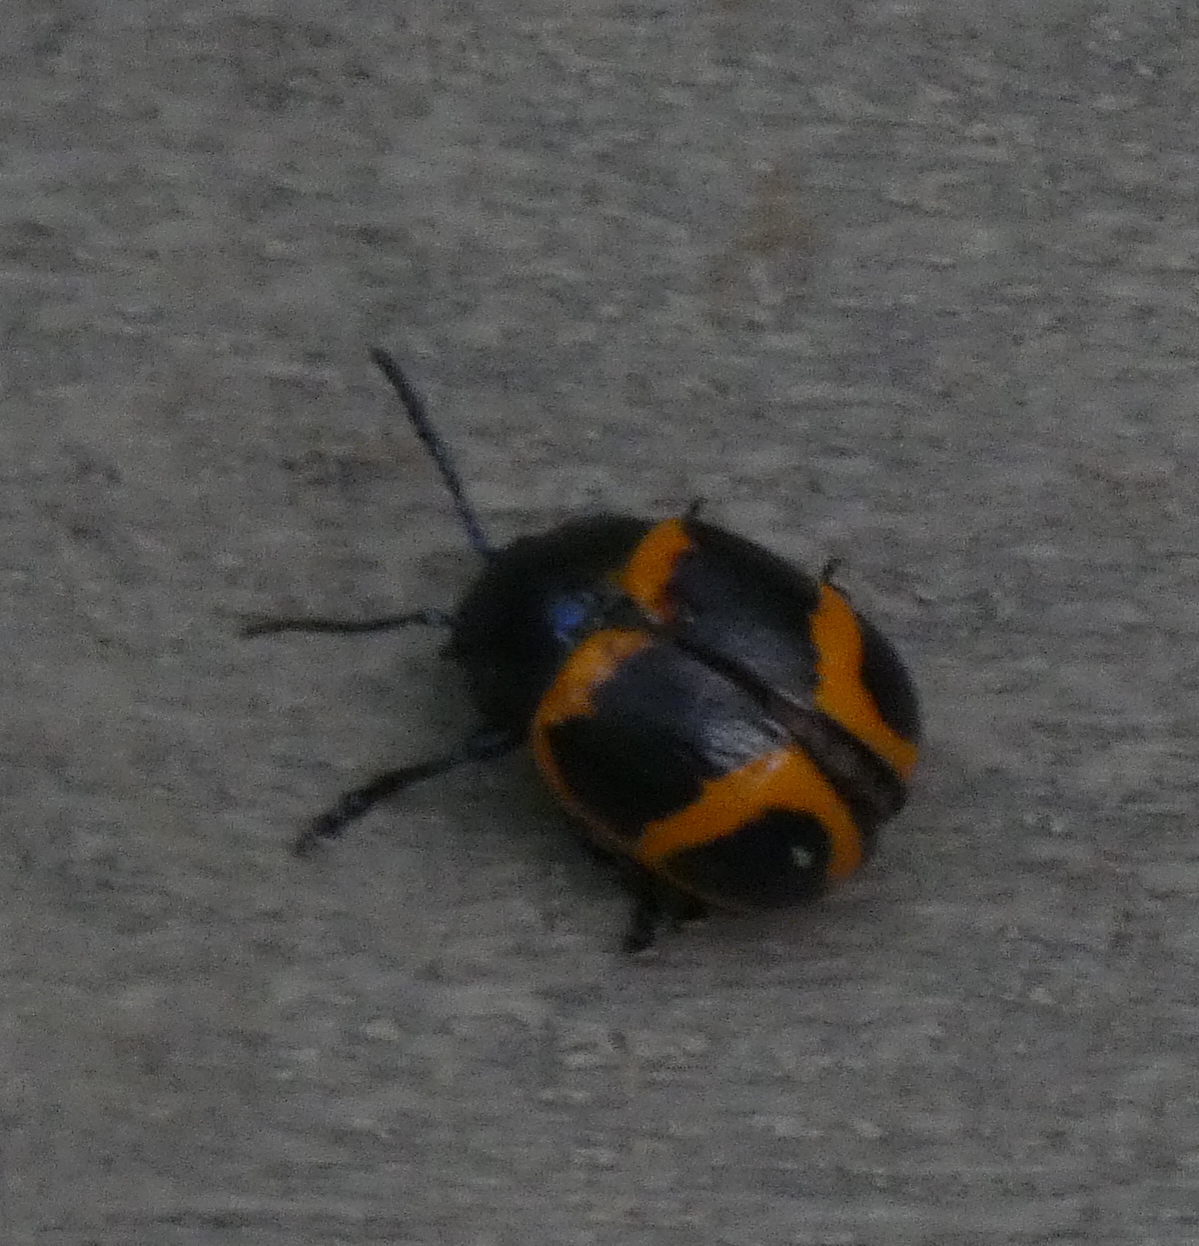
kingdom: Animalia
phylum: Arthropoda
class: Insecta
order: Coleoptera
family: Chrysomelidae
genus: Labidomera
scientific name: Labidomera clivicollis
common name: Swamp milkweed leaf beetle
